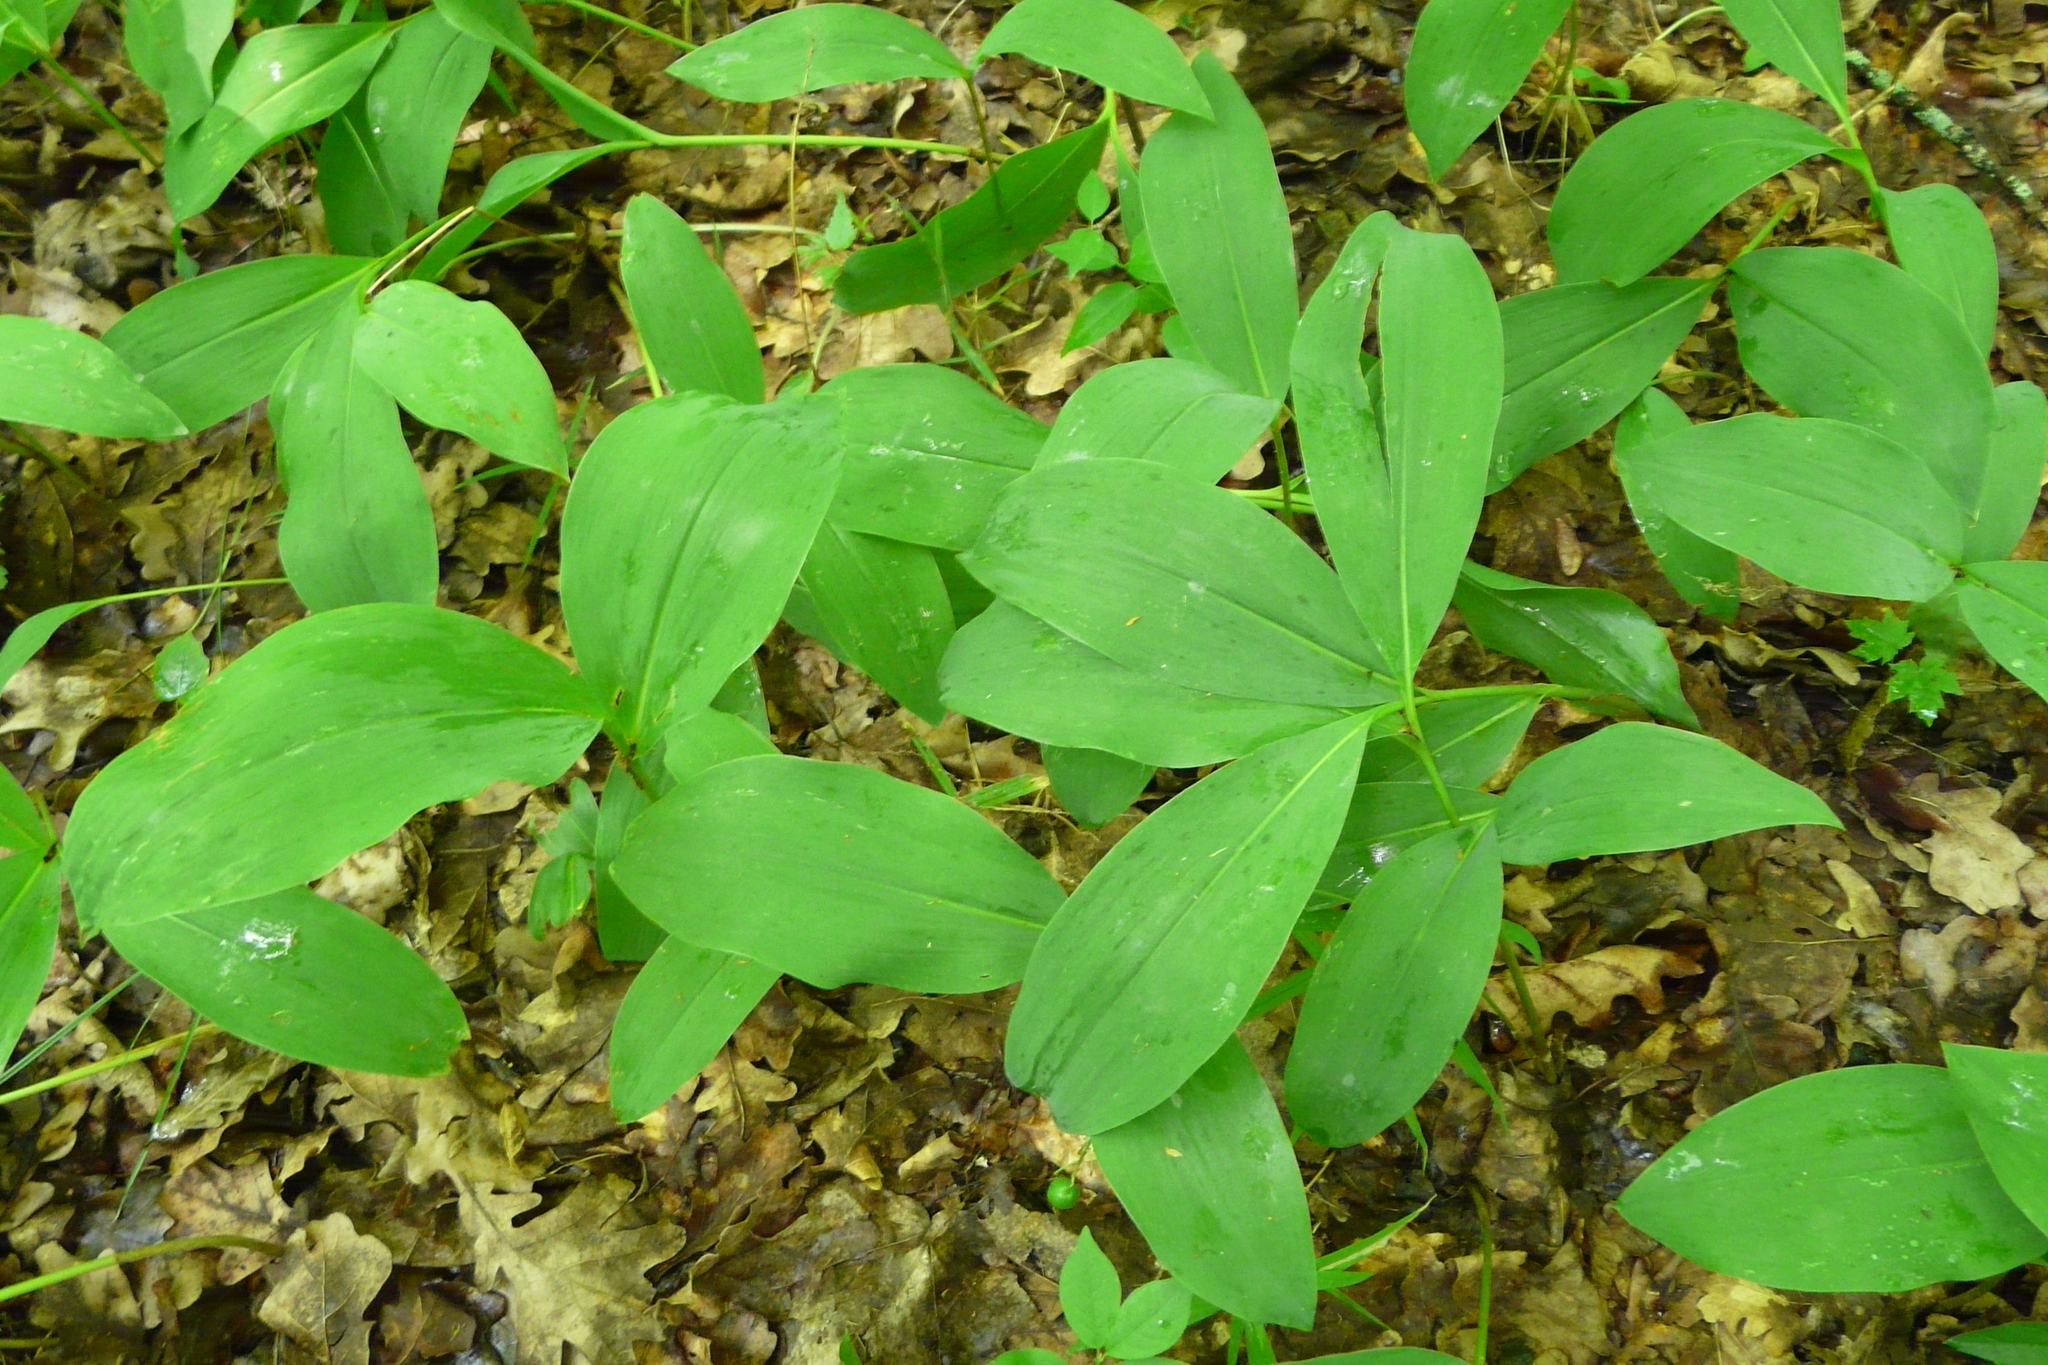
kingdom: Plantae
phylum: Tracheophyta
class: Liliopsida
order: Asparagales
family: Asparagaceae
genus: Convallaria
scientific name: Convallaria majalis
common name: Lily-of-the-valley
